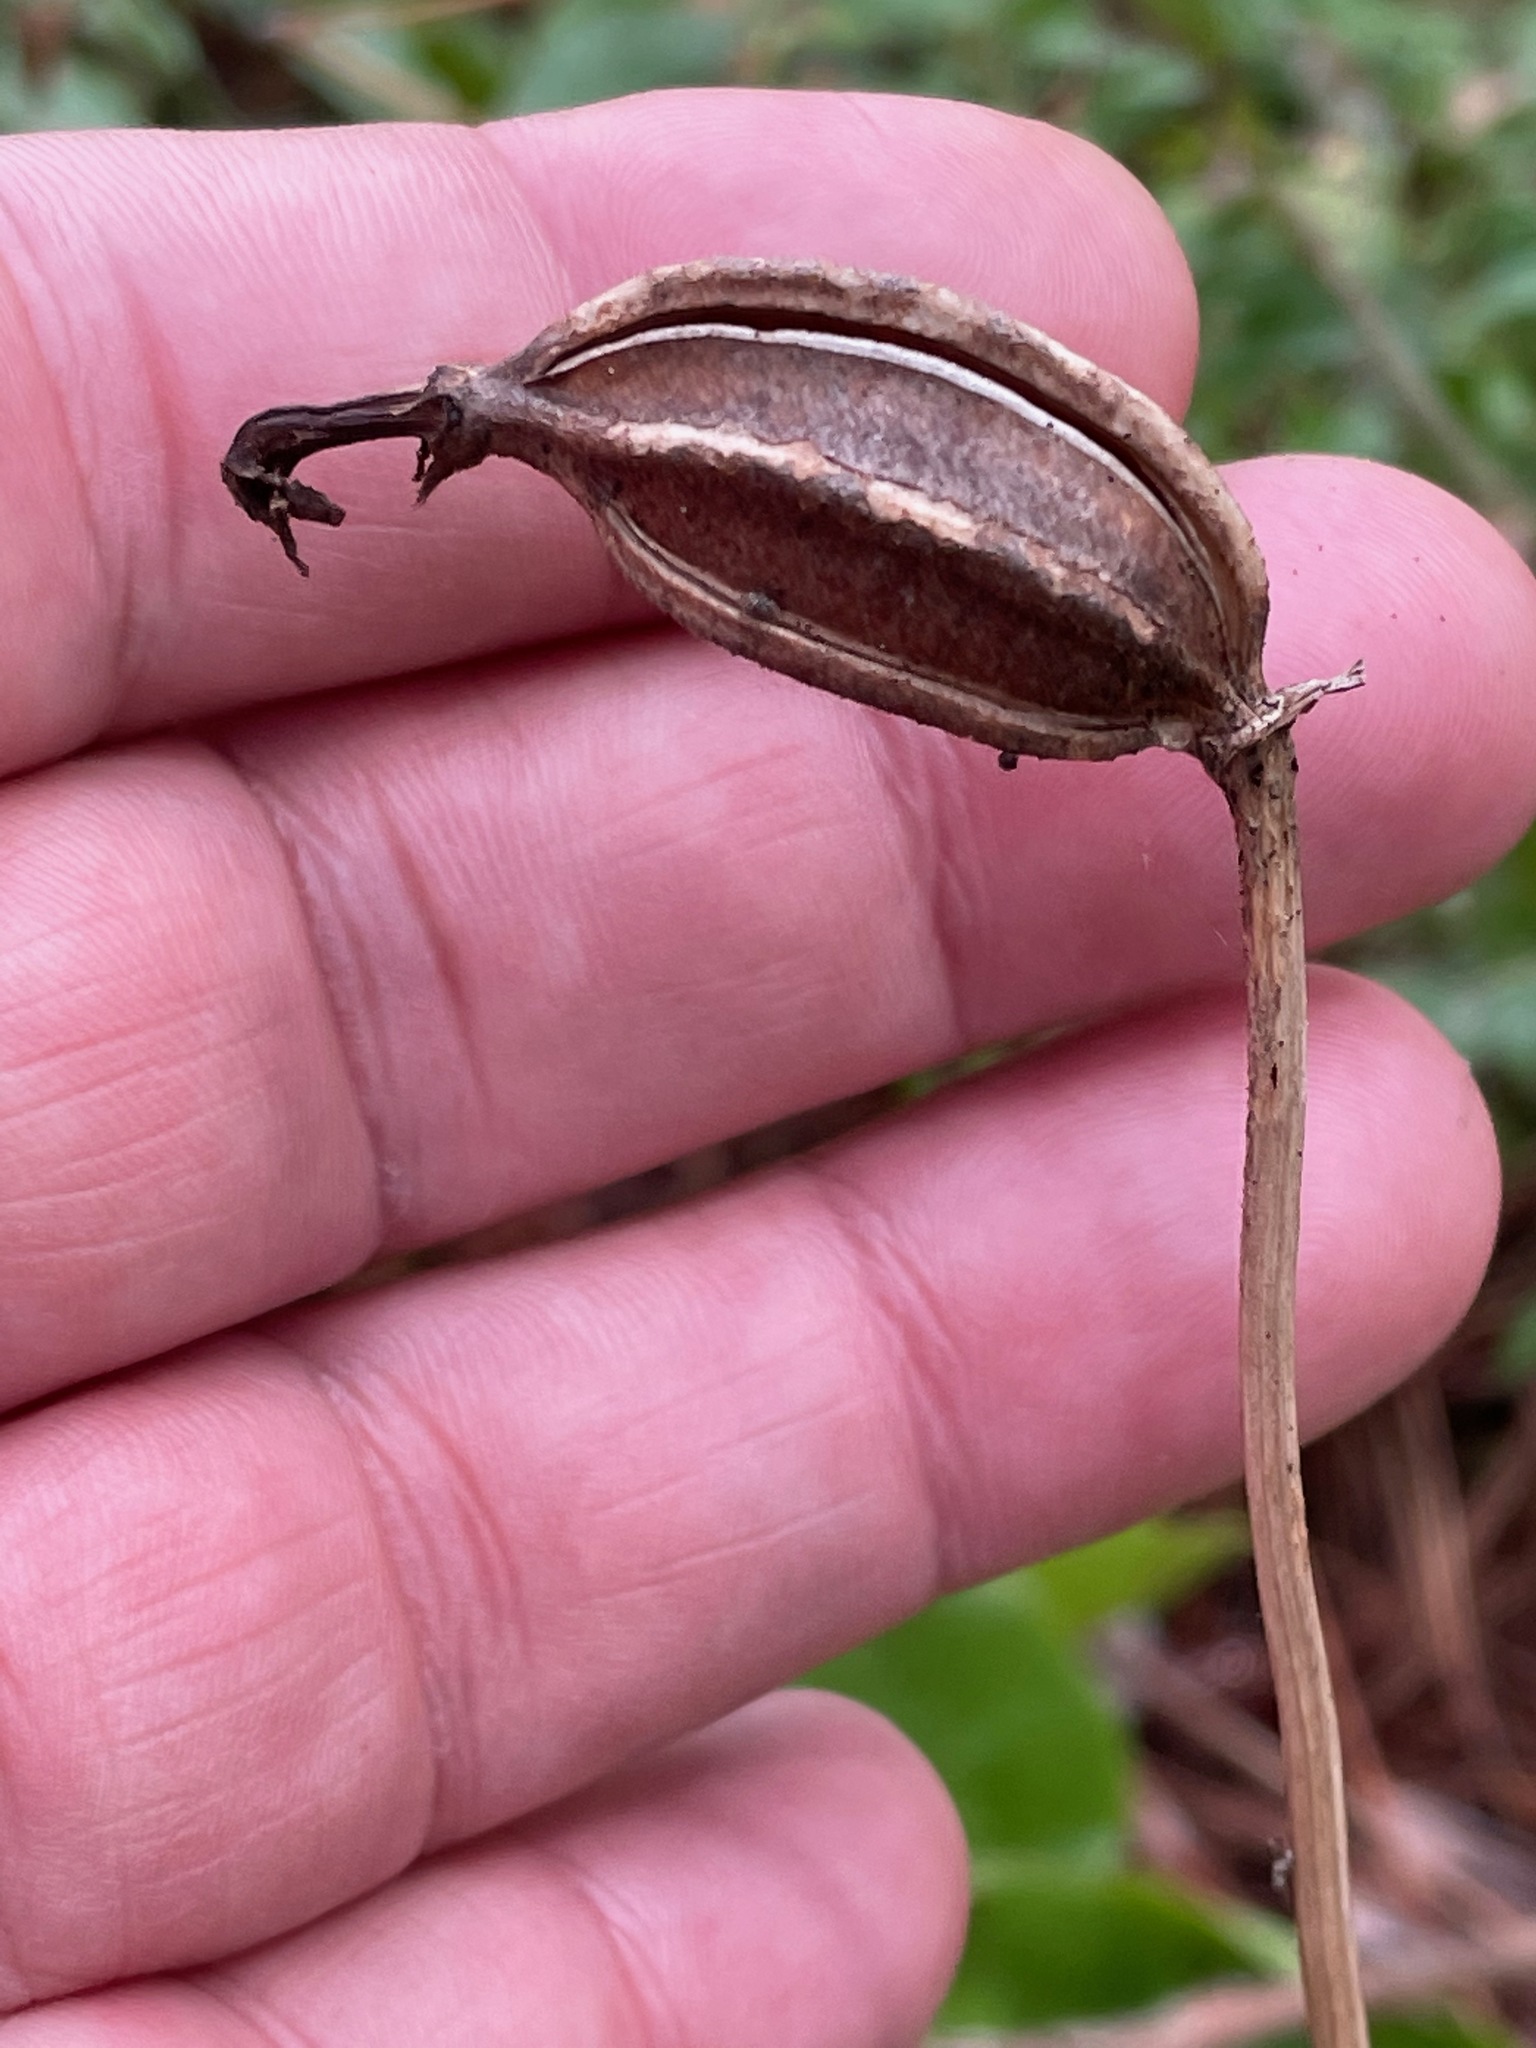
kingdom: Plantae
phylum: Tracheophyta
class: Liliopsida
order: Asparagales
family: Orchidaceae
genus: Cypripedium
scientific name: Cypripedium acaule
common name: Pink lady's-slipper
